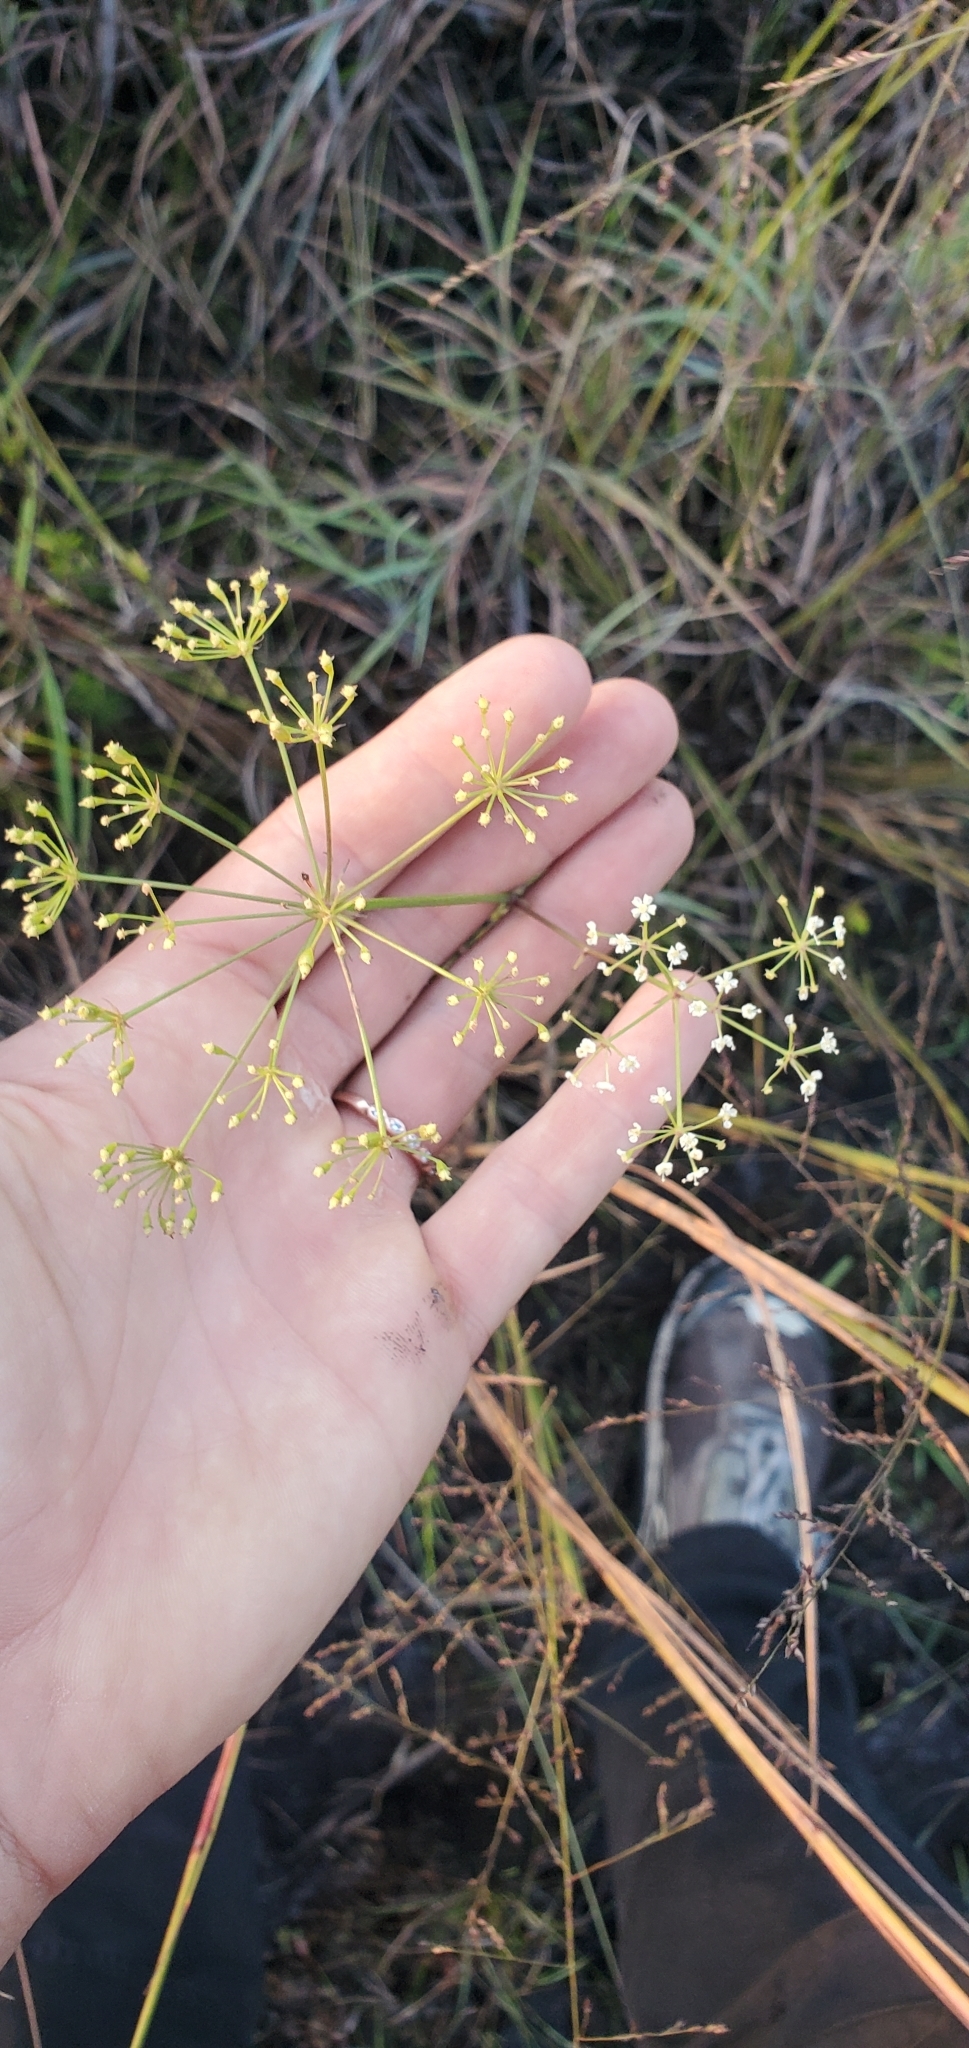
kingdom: Plantae
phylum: Tracheophyta
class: Magnoliopsida
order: Apiales
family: Apiaceae
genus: Tiedemannia
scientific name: Tiedemannia filiformis
